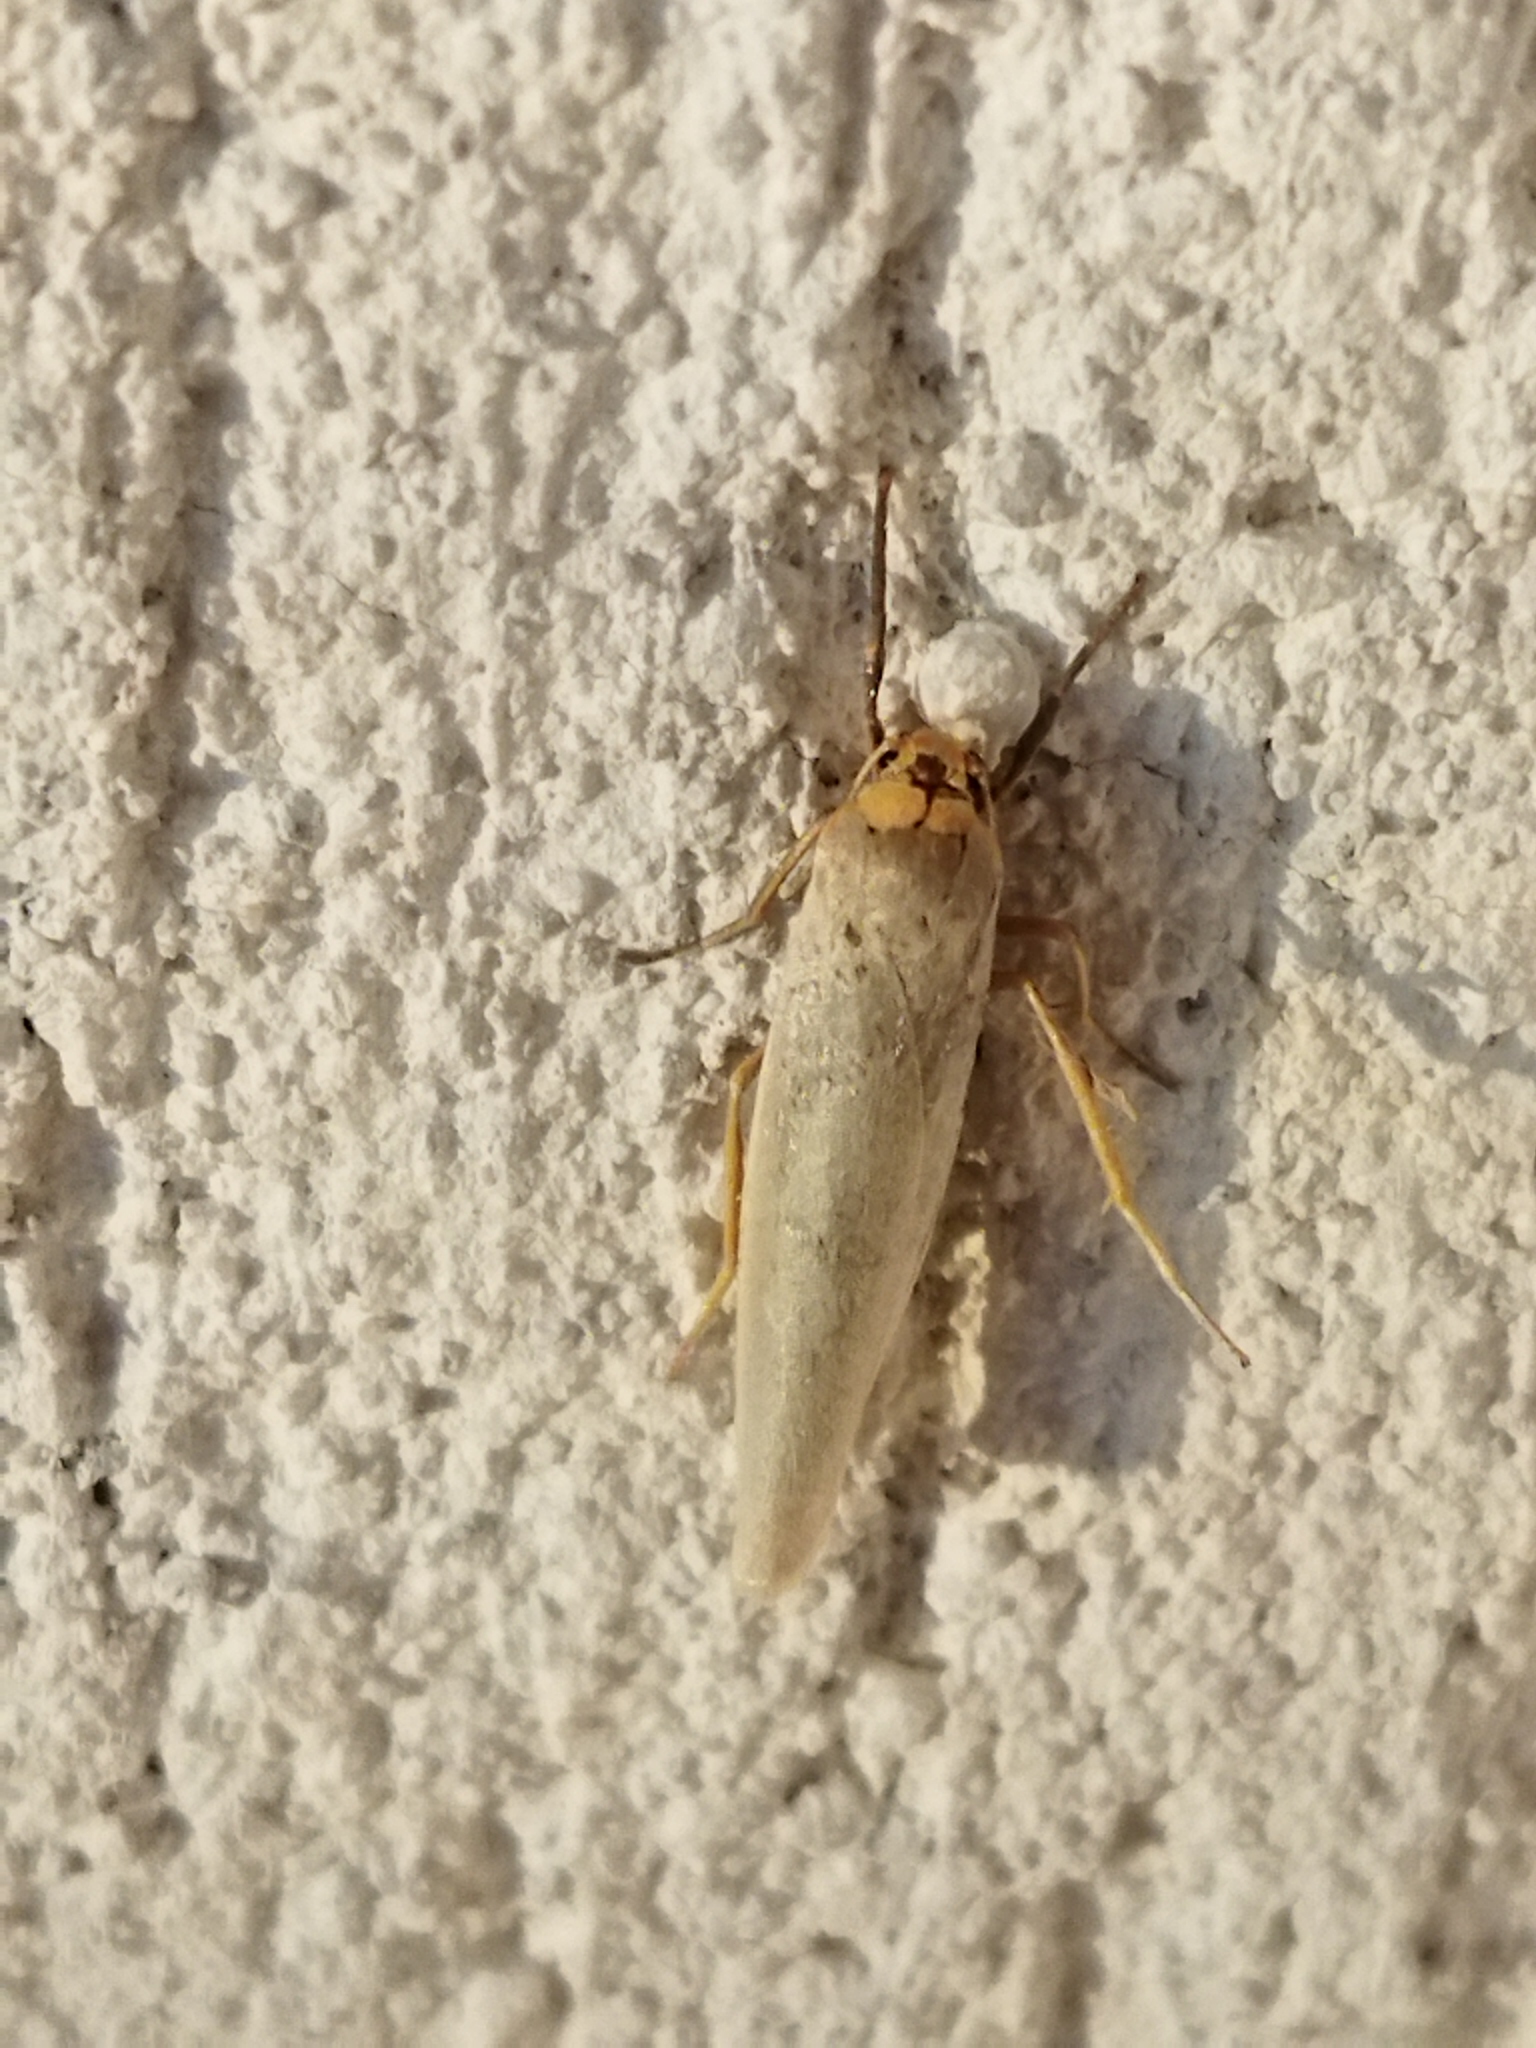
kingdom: Animalia
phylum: Arthropoda
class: Insecta
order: Lepidoptera
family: Erebidae
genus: Eilema
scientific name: Eilema caniola
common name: Hoary footman
